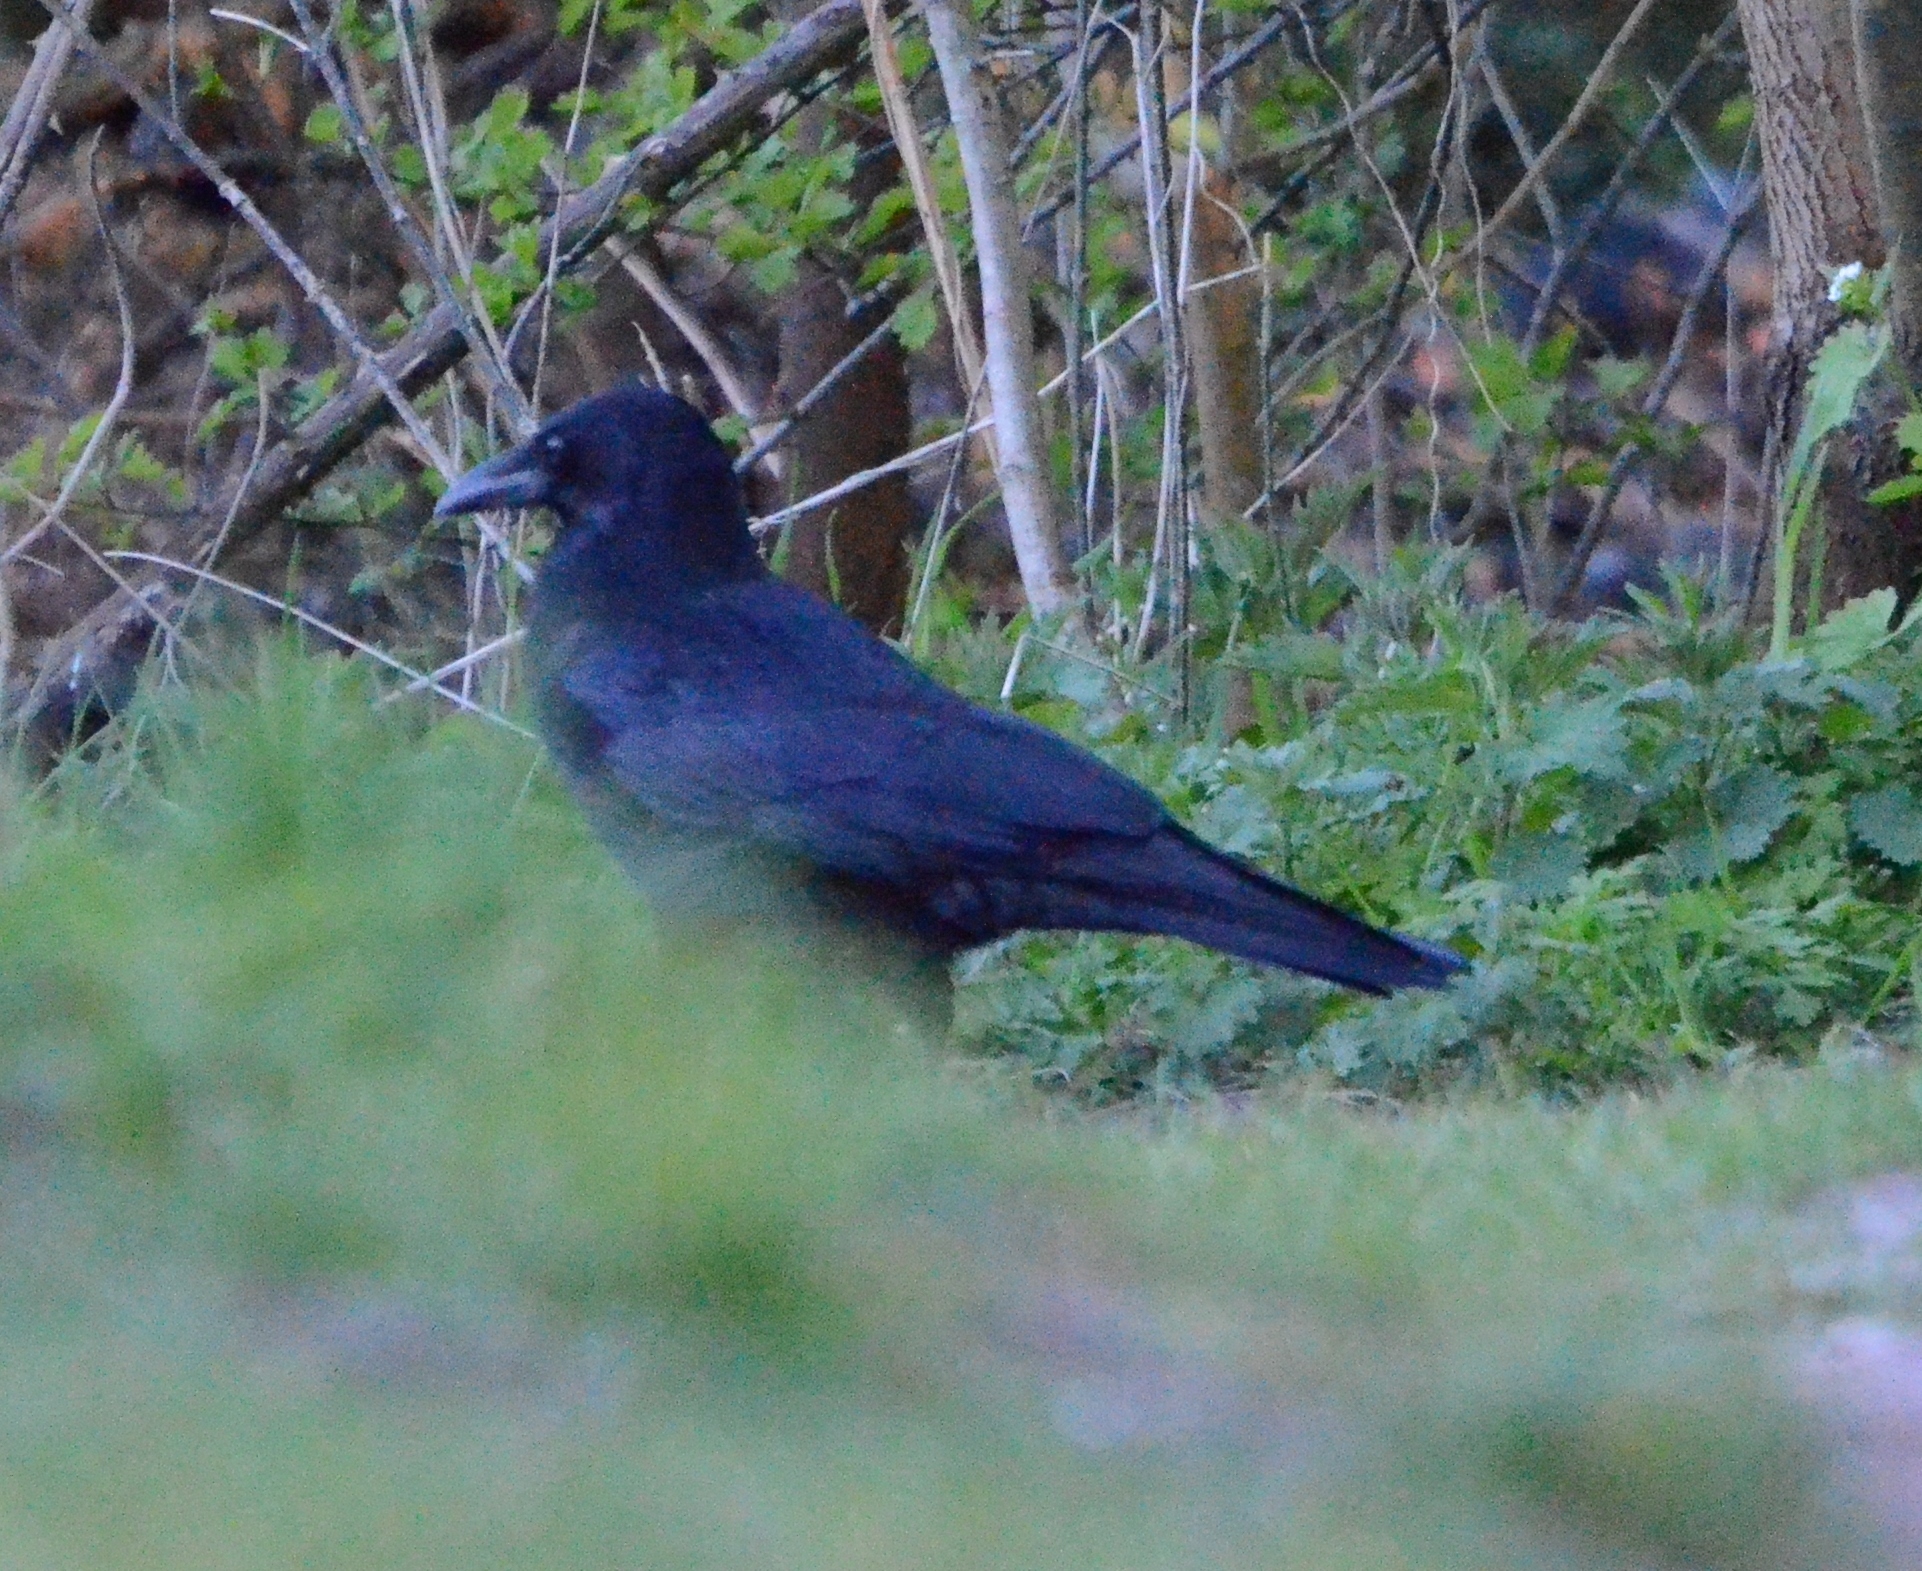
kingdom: Animalia
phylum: Chordata
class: Aves
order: Passeriformes
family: Corvidae
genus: Corvus
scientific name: Corvus corone
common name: Carrion crow
